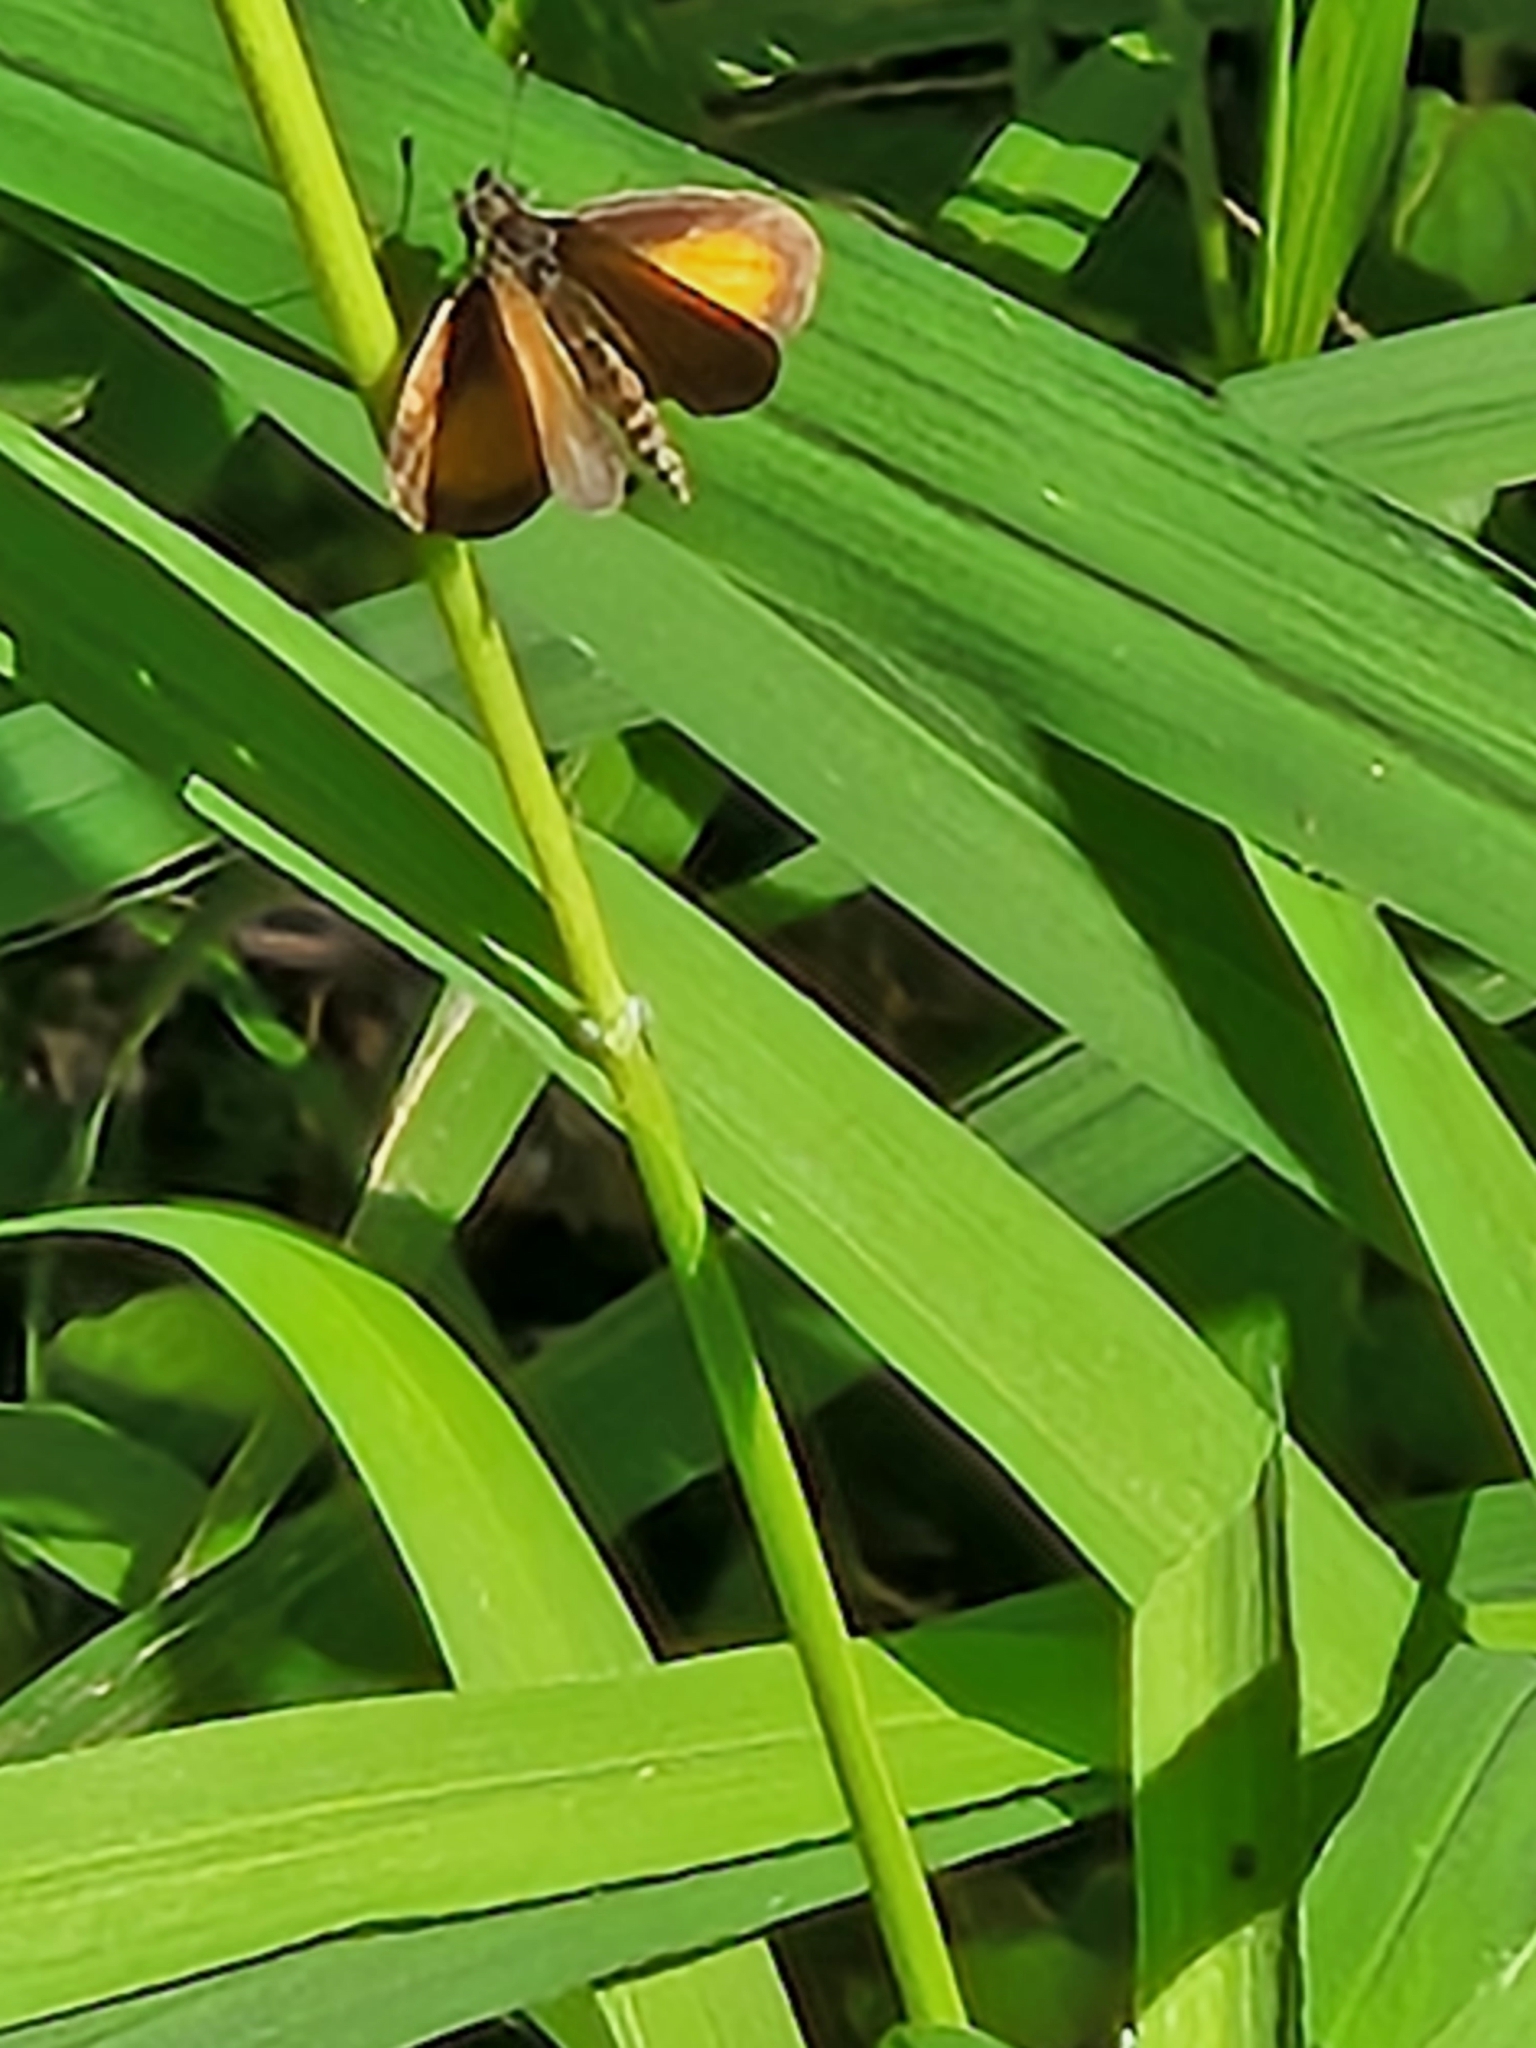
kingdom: Animalia
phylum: Arthropoda
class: Insecta
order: Lepidoptera
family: Hesperiidae
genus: Ancyloxypha
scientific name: Ancyloxypha numitor
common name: Least skipper
